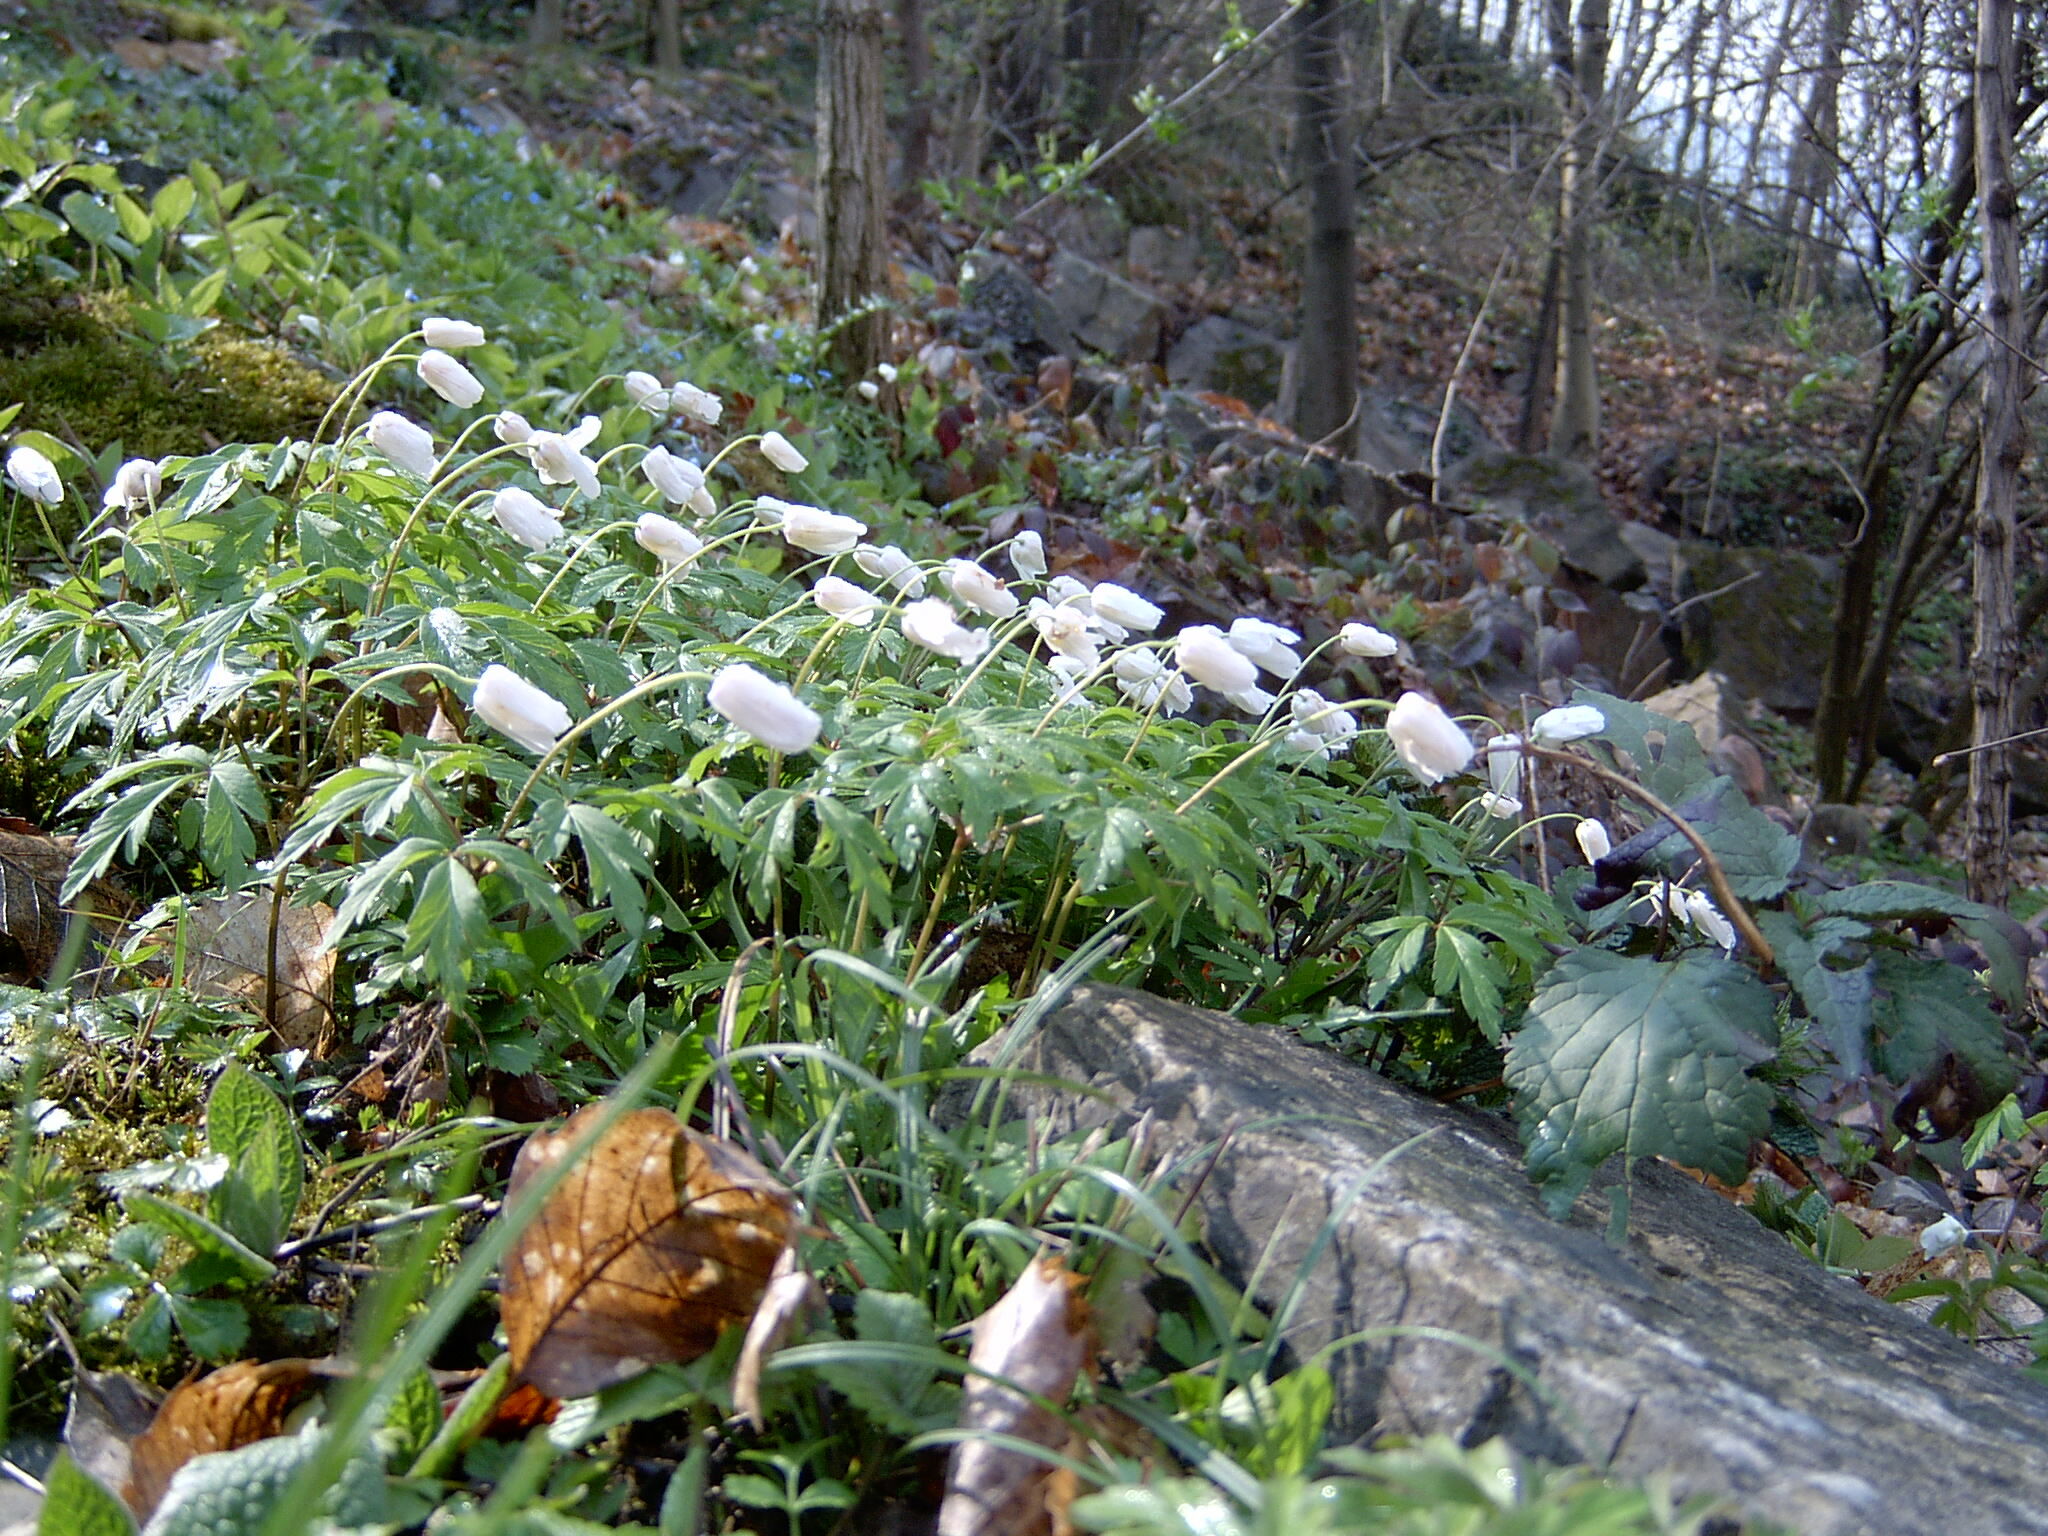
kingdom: Plantae
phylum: Tracheophyta
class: Magnoliopsida
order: Ranunculales
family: Ranunculaceae
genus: Anemone
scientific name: Anemone nemorosa
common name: Wood anemone
